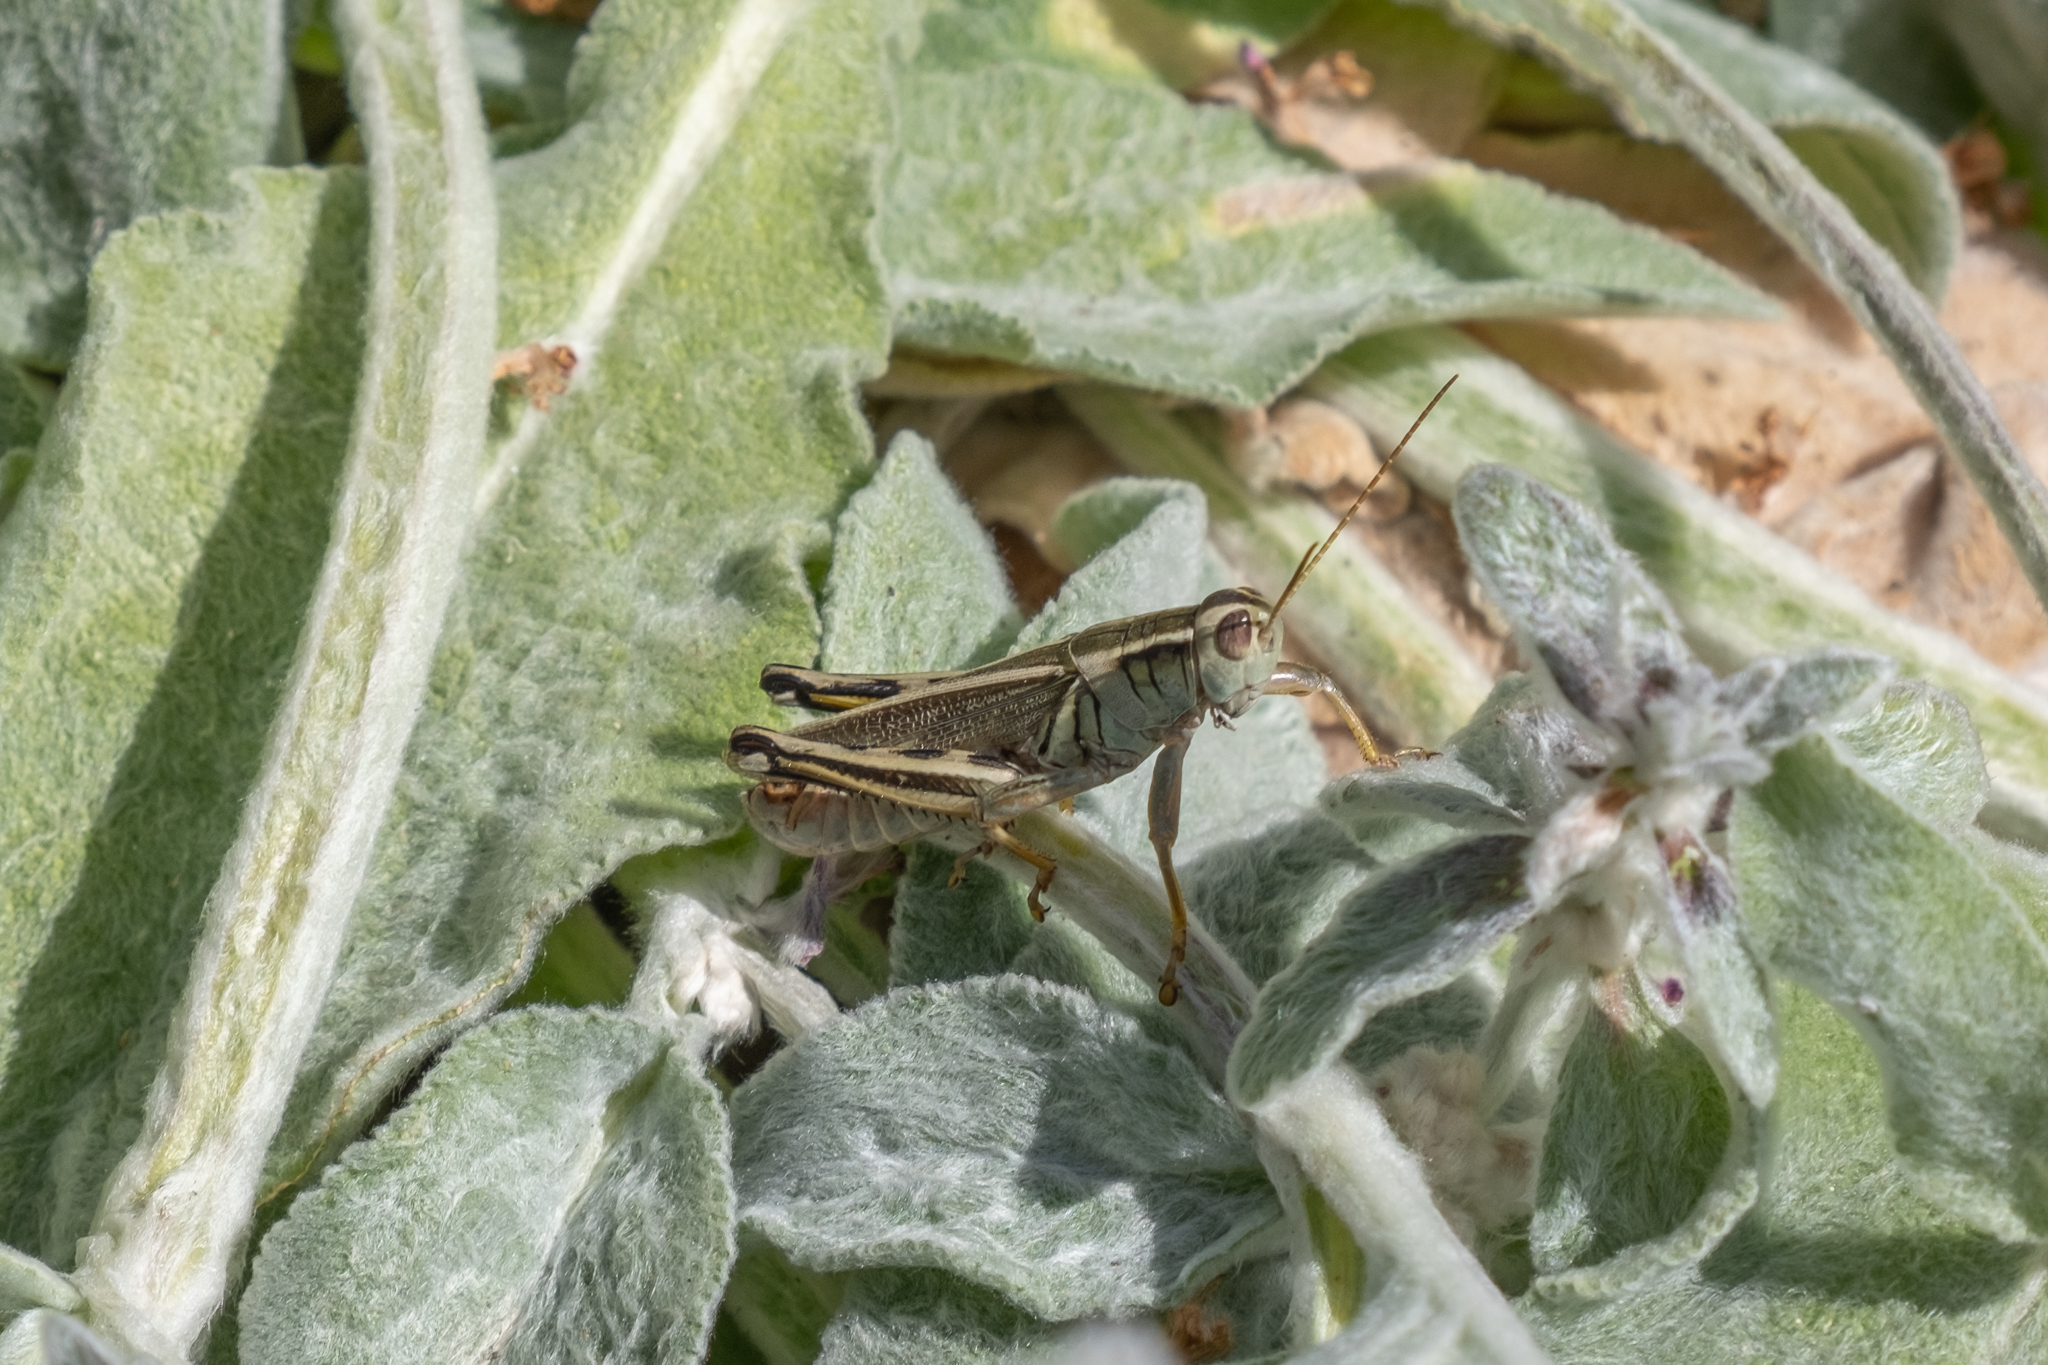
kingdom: Animalia
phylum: Arthropoda
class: Insecta
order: Orthoptera
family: Acrididae
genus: Melanoplus
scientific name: Melanoplus bivittatus
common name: Two-striped grasshopper
